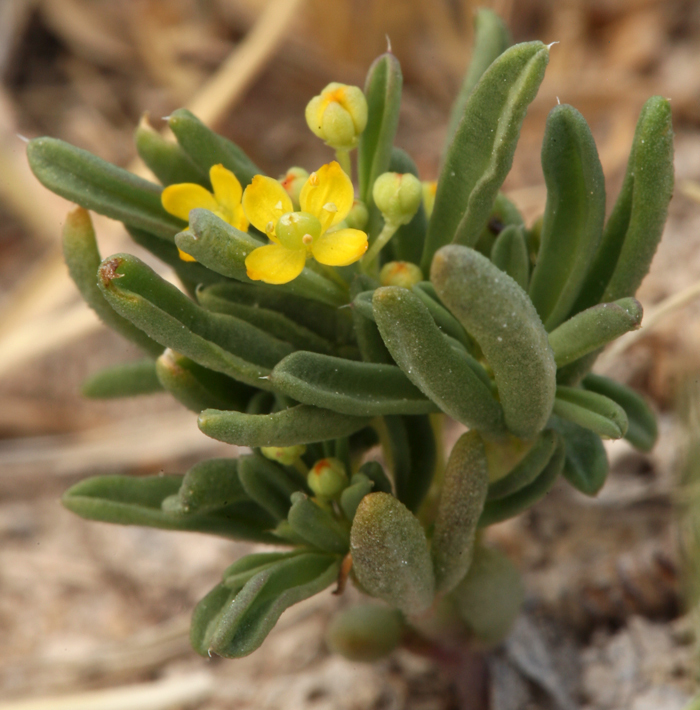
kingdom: Plantae
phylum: Tracheophyta
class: Magnoliopsida
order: Brassicales
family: Cleomaceae
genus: Cleomella
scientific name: Cleomella brevipes
